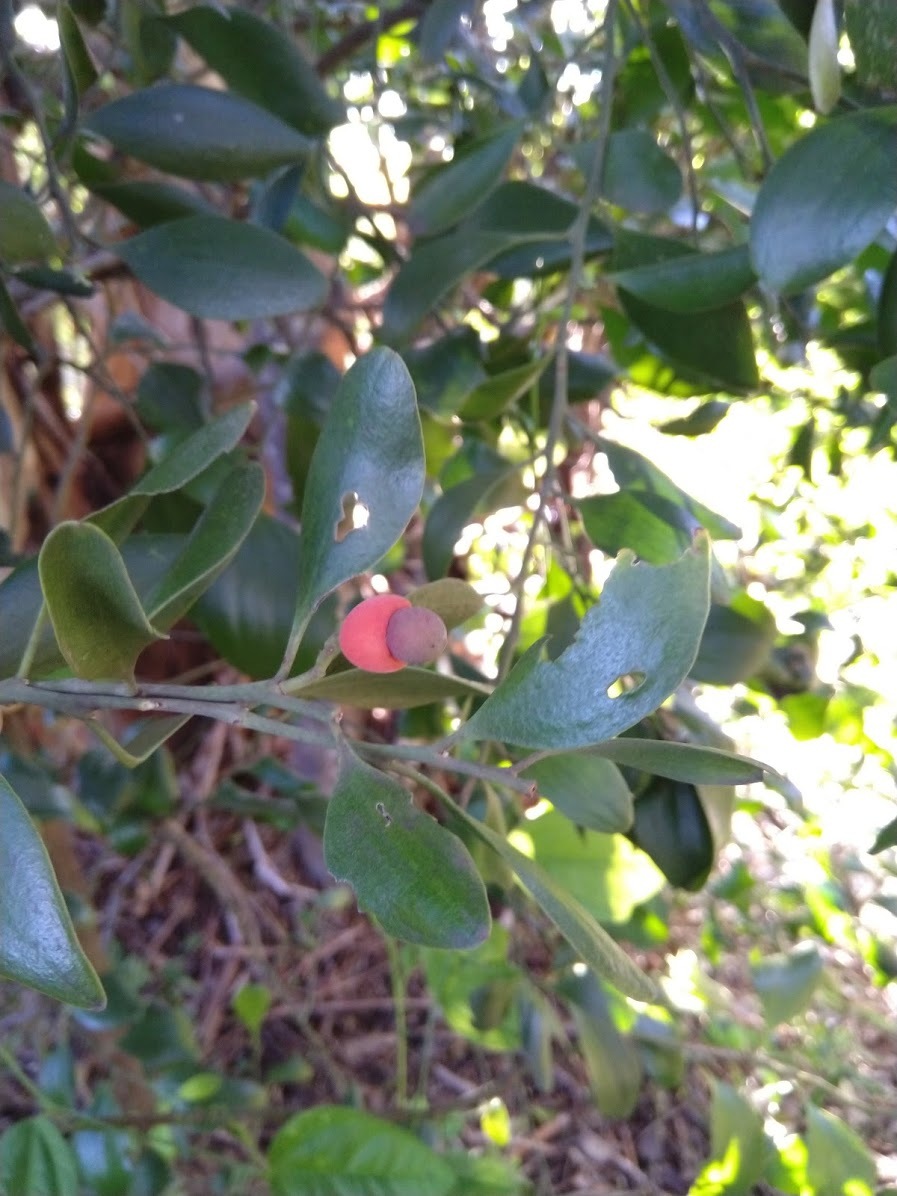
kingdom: Plantae
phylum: Tracheophyta
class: Magnoliopsida
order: Santalales
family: Santalaceae
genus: Exocarpos
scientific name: Exocarpos latifolius
